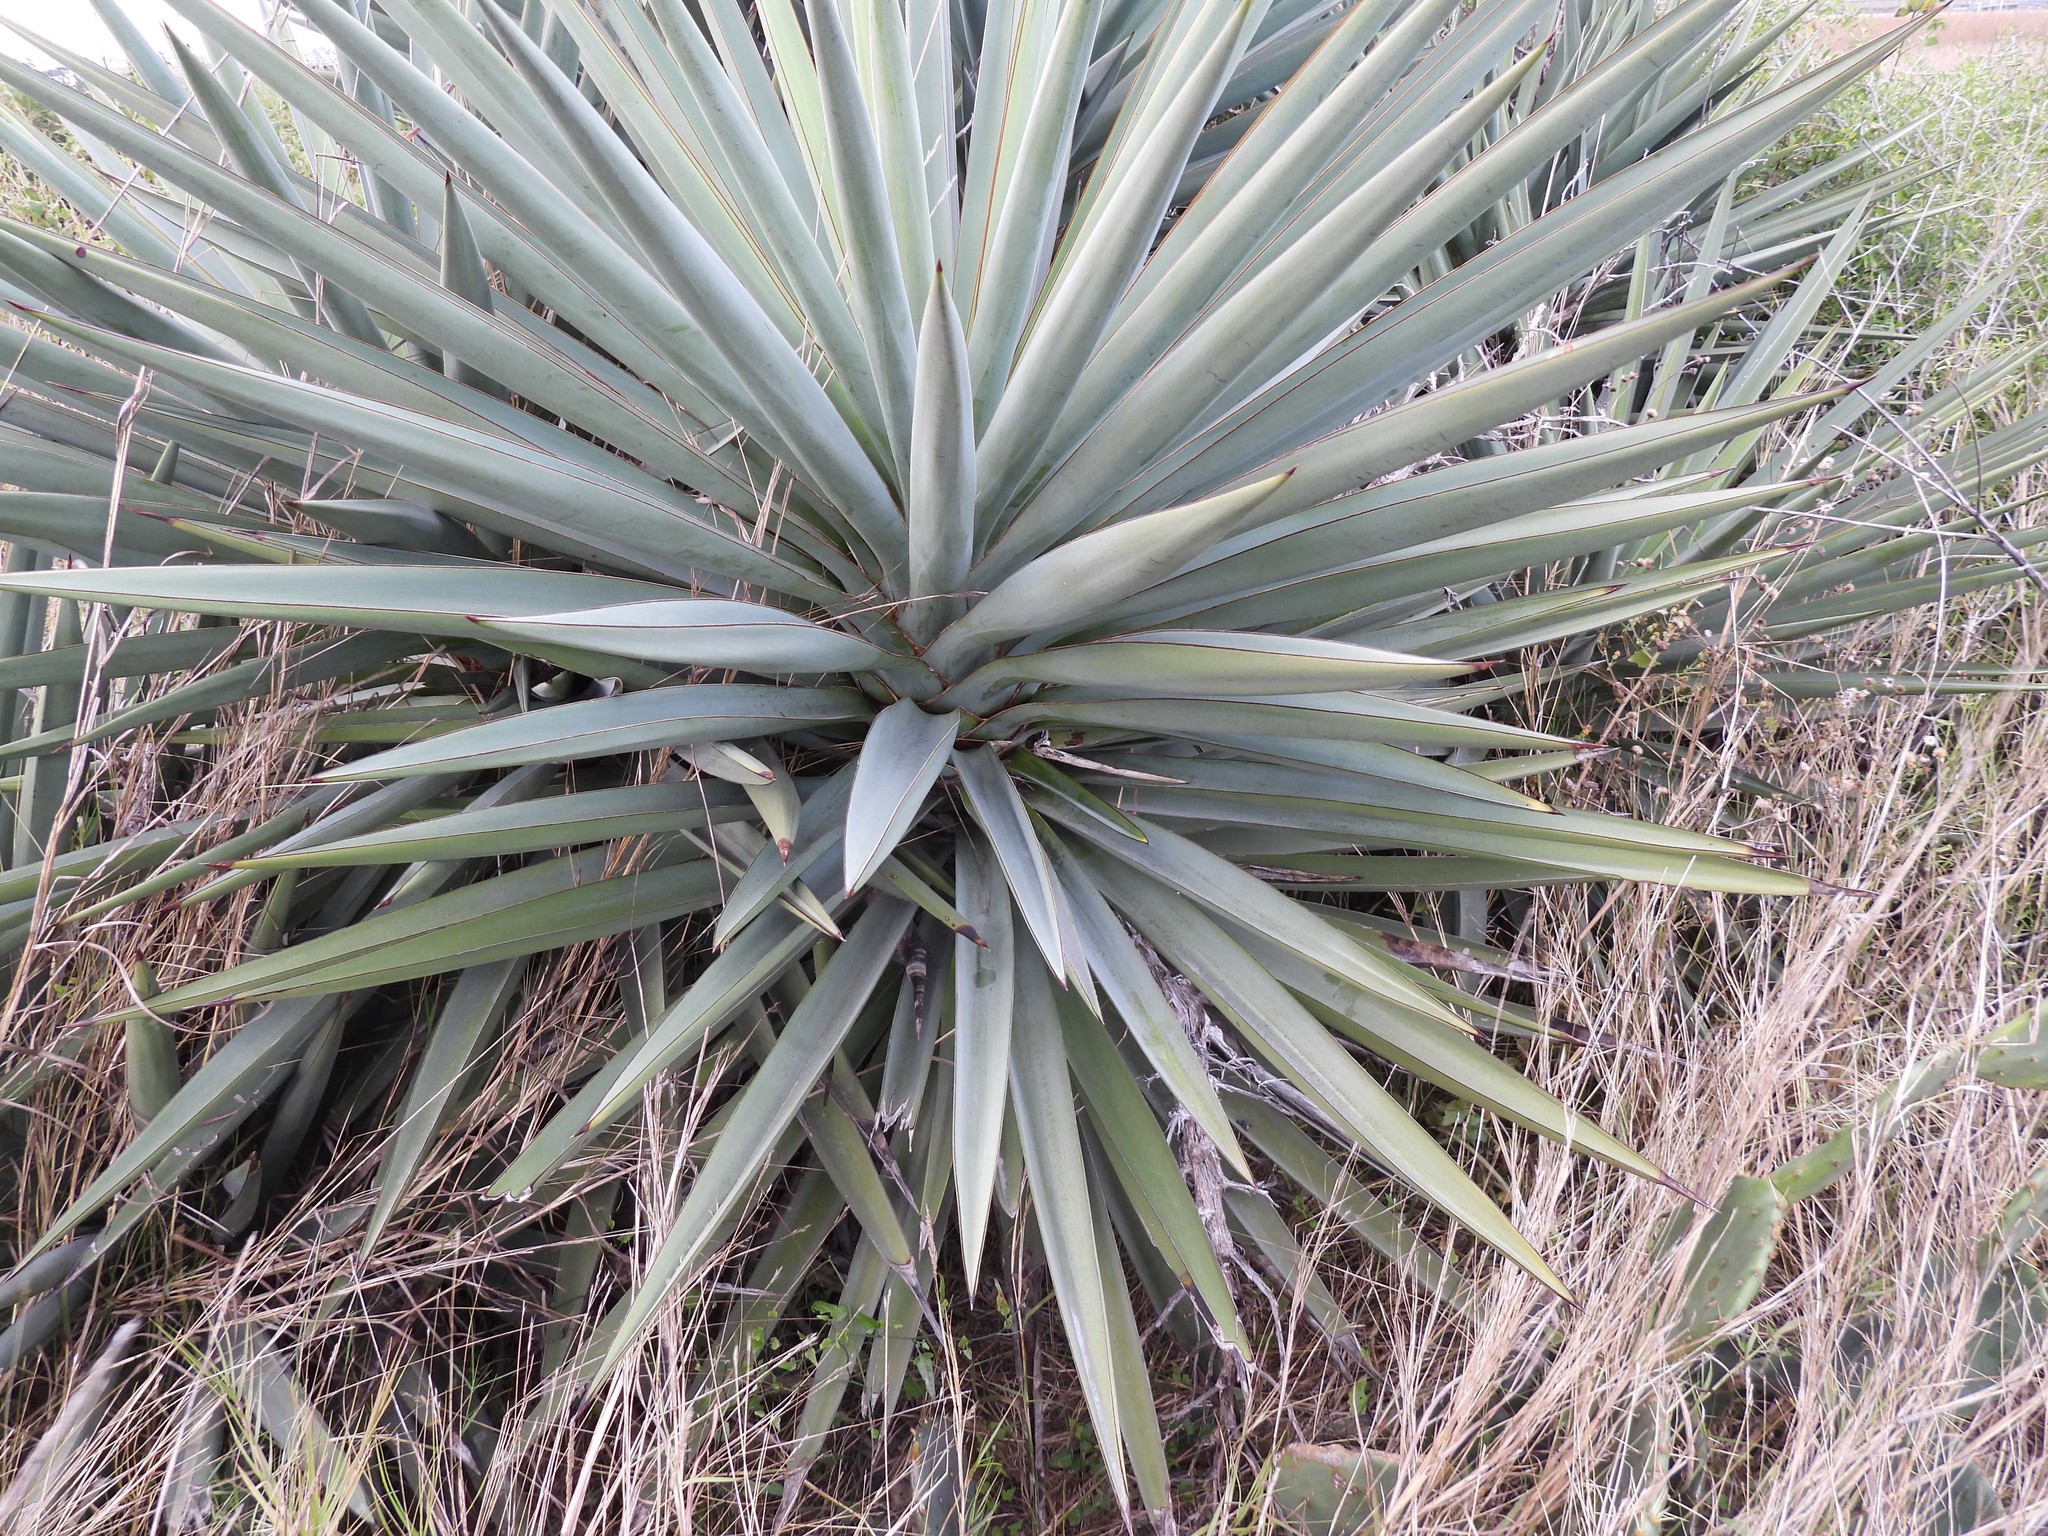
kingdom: Plantae
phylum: Tracheophyta
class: Liliopsida
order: Asparagales
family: Asparagaceae
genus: Yucca
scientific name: Yucca treculiana
